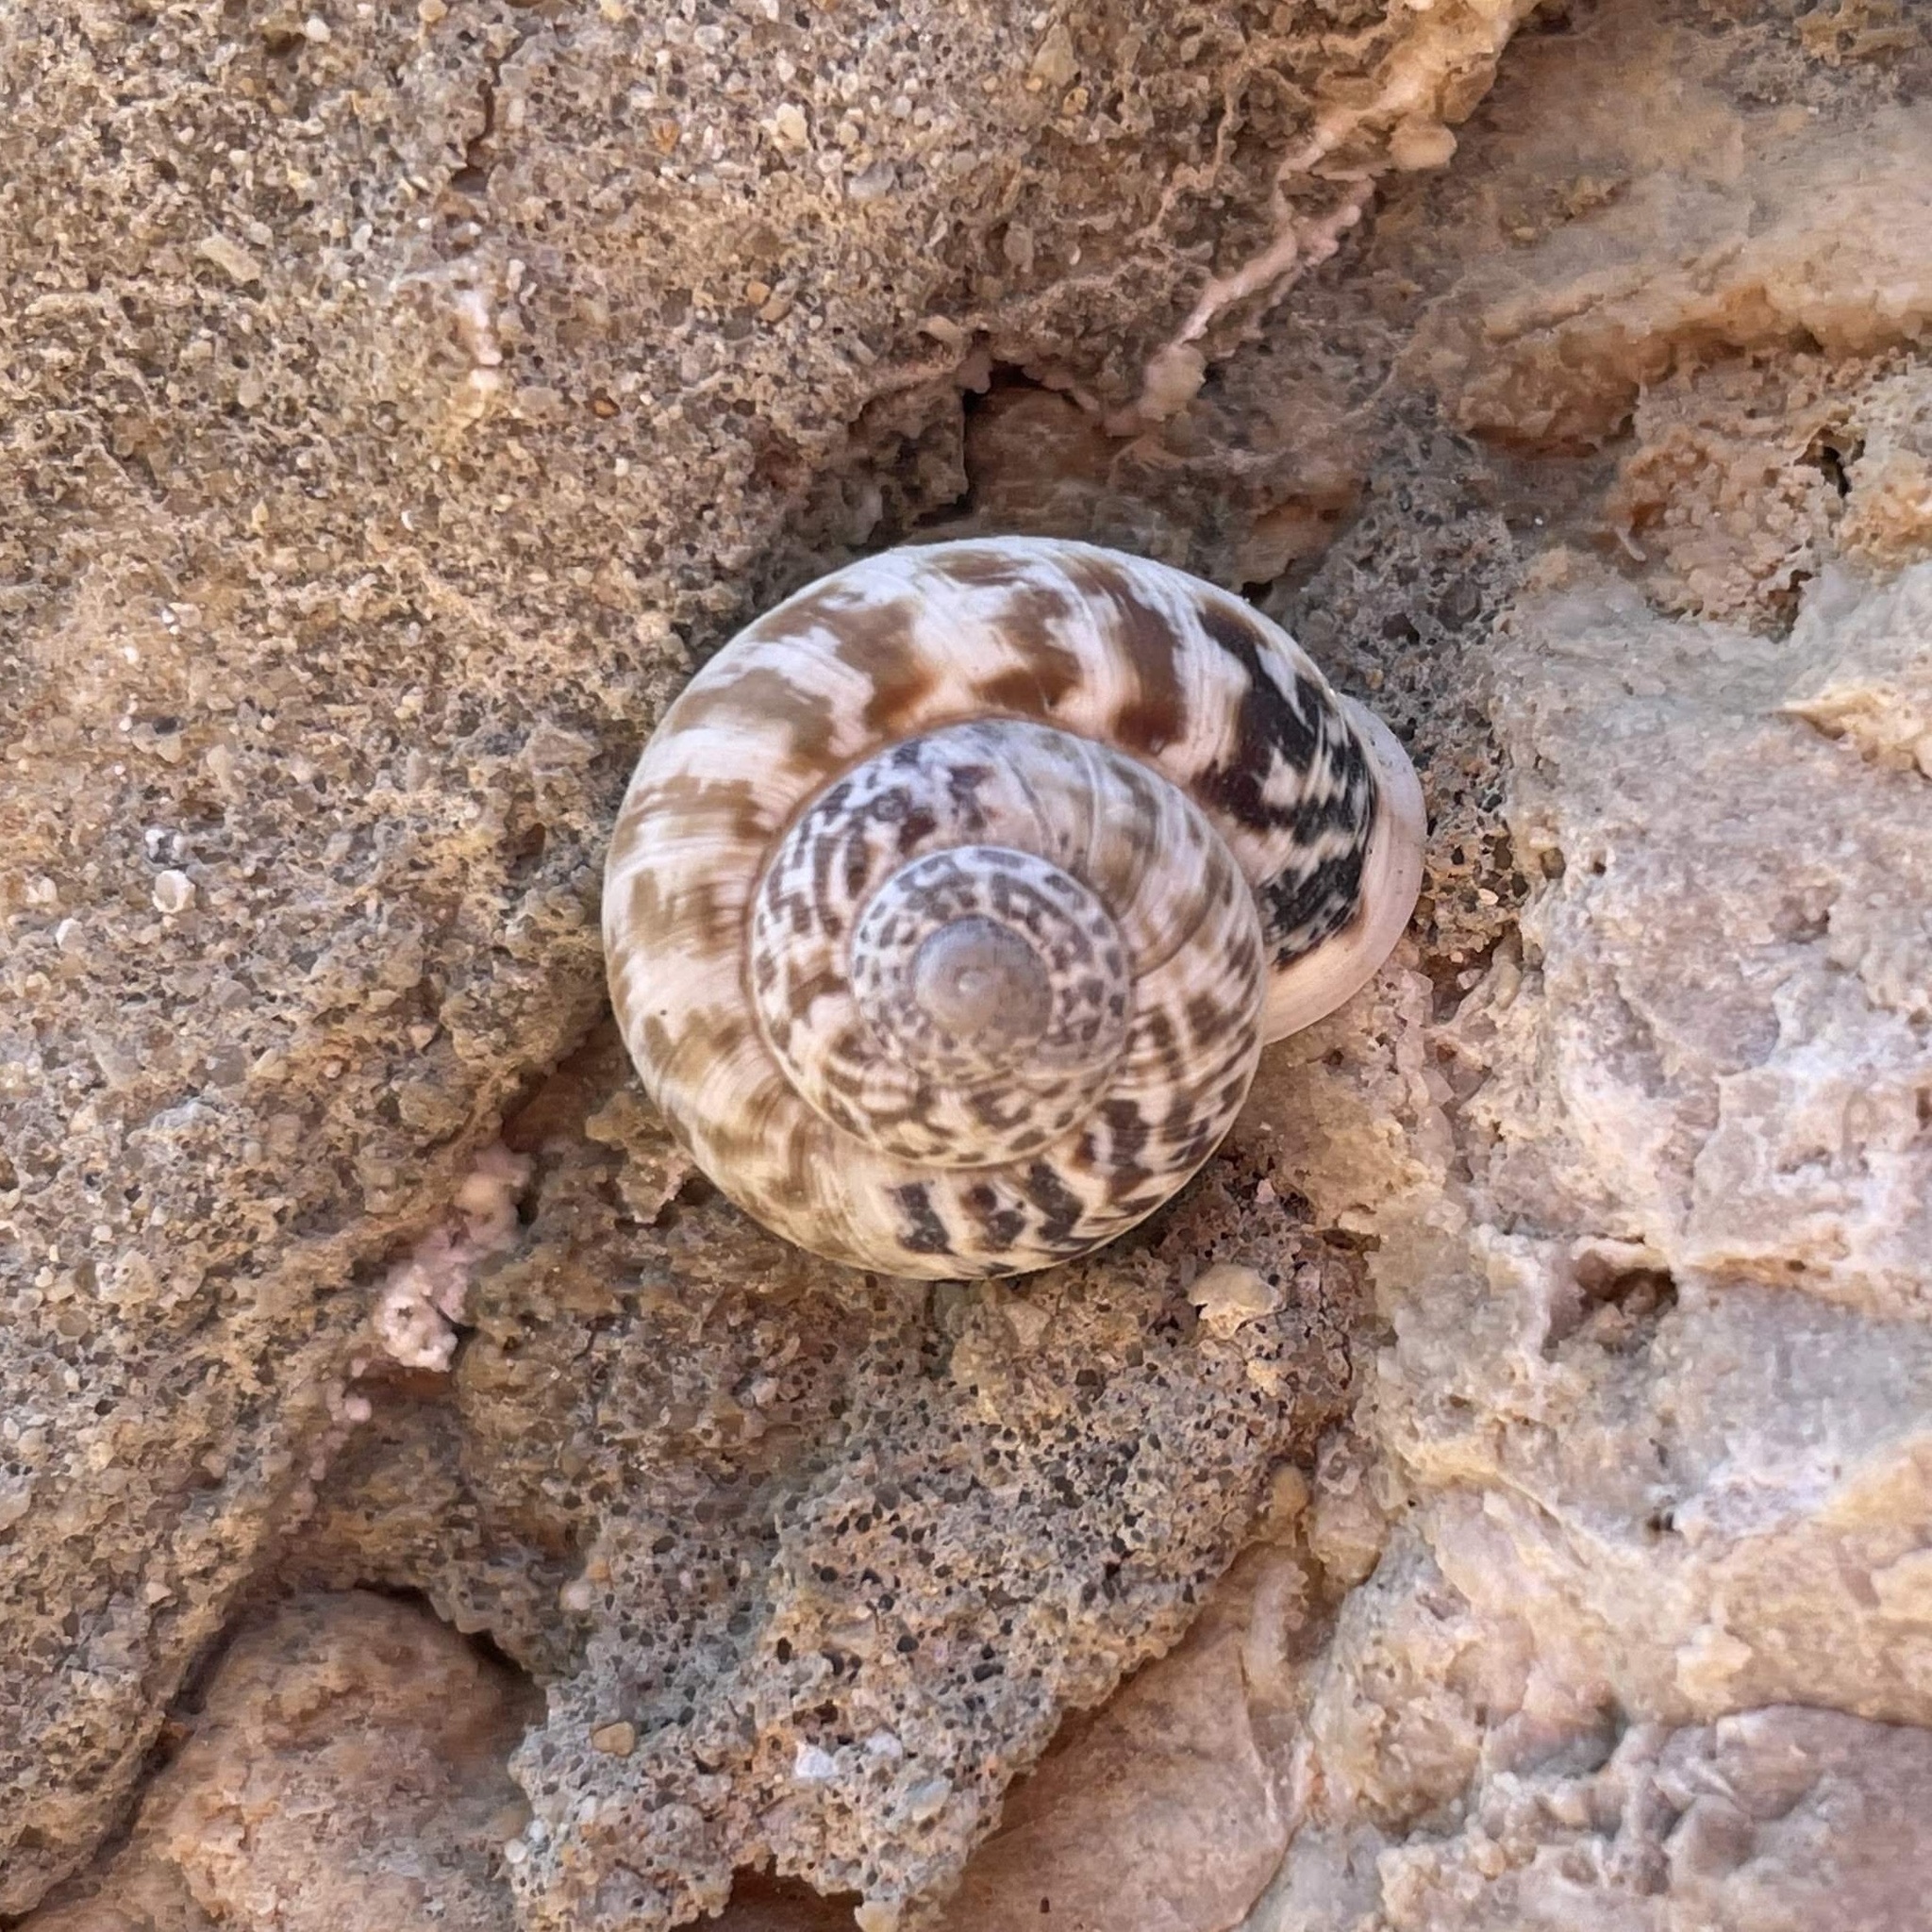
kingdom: Animalia
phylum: Mollusca
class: Gastropoda
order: Stylommatophora
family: Helicidae
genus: Marmorana
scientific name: Marmorana muralis
